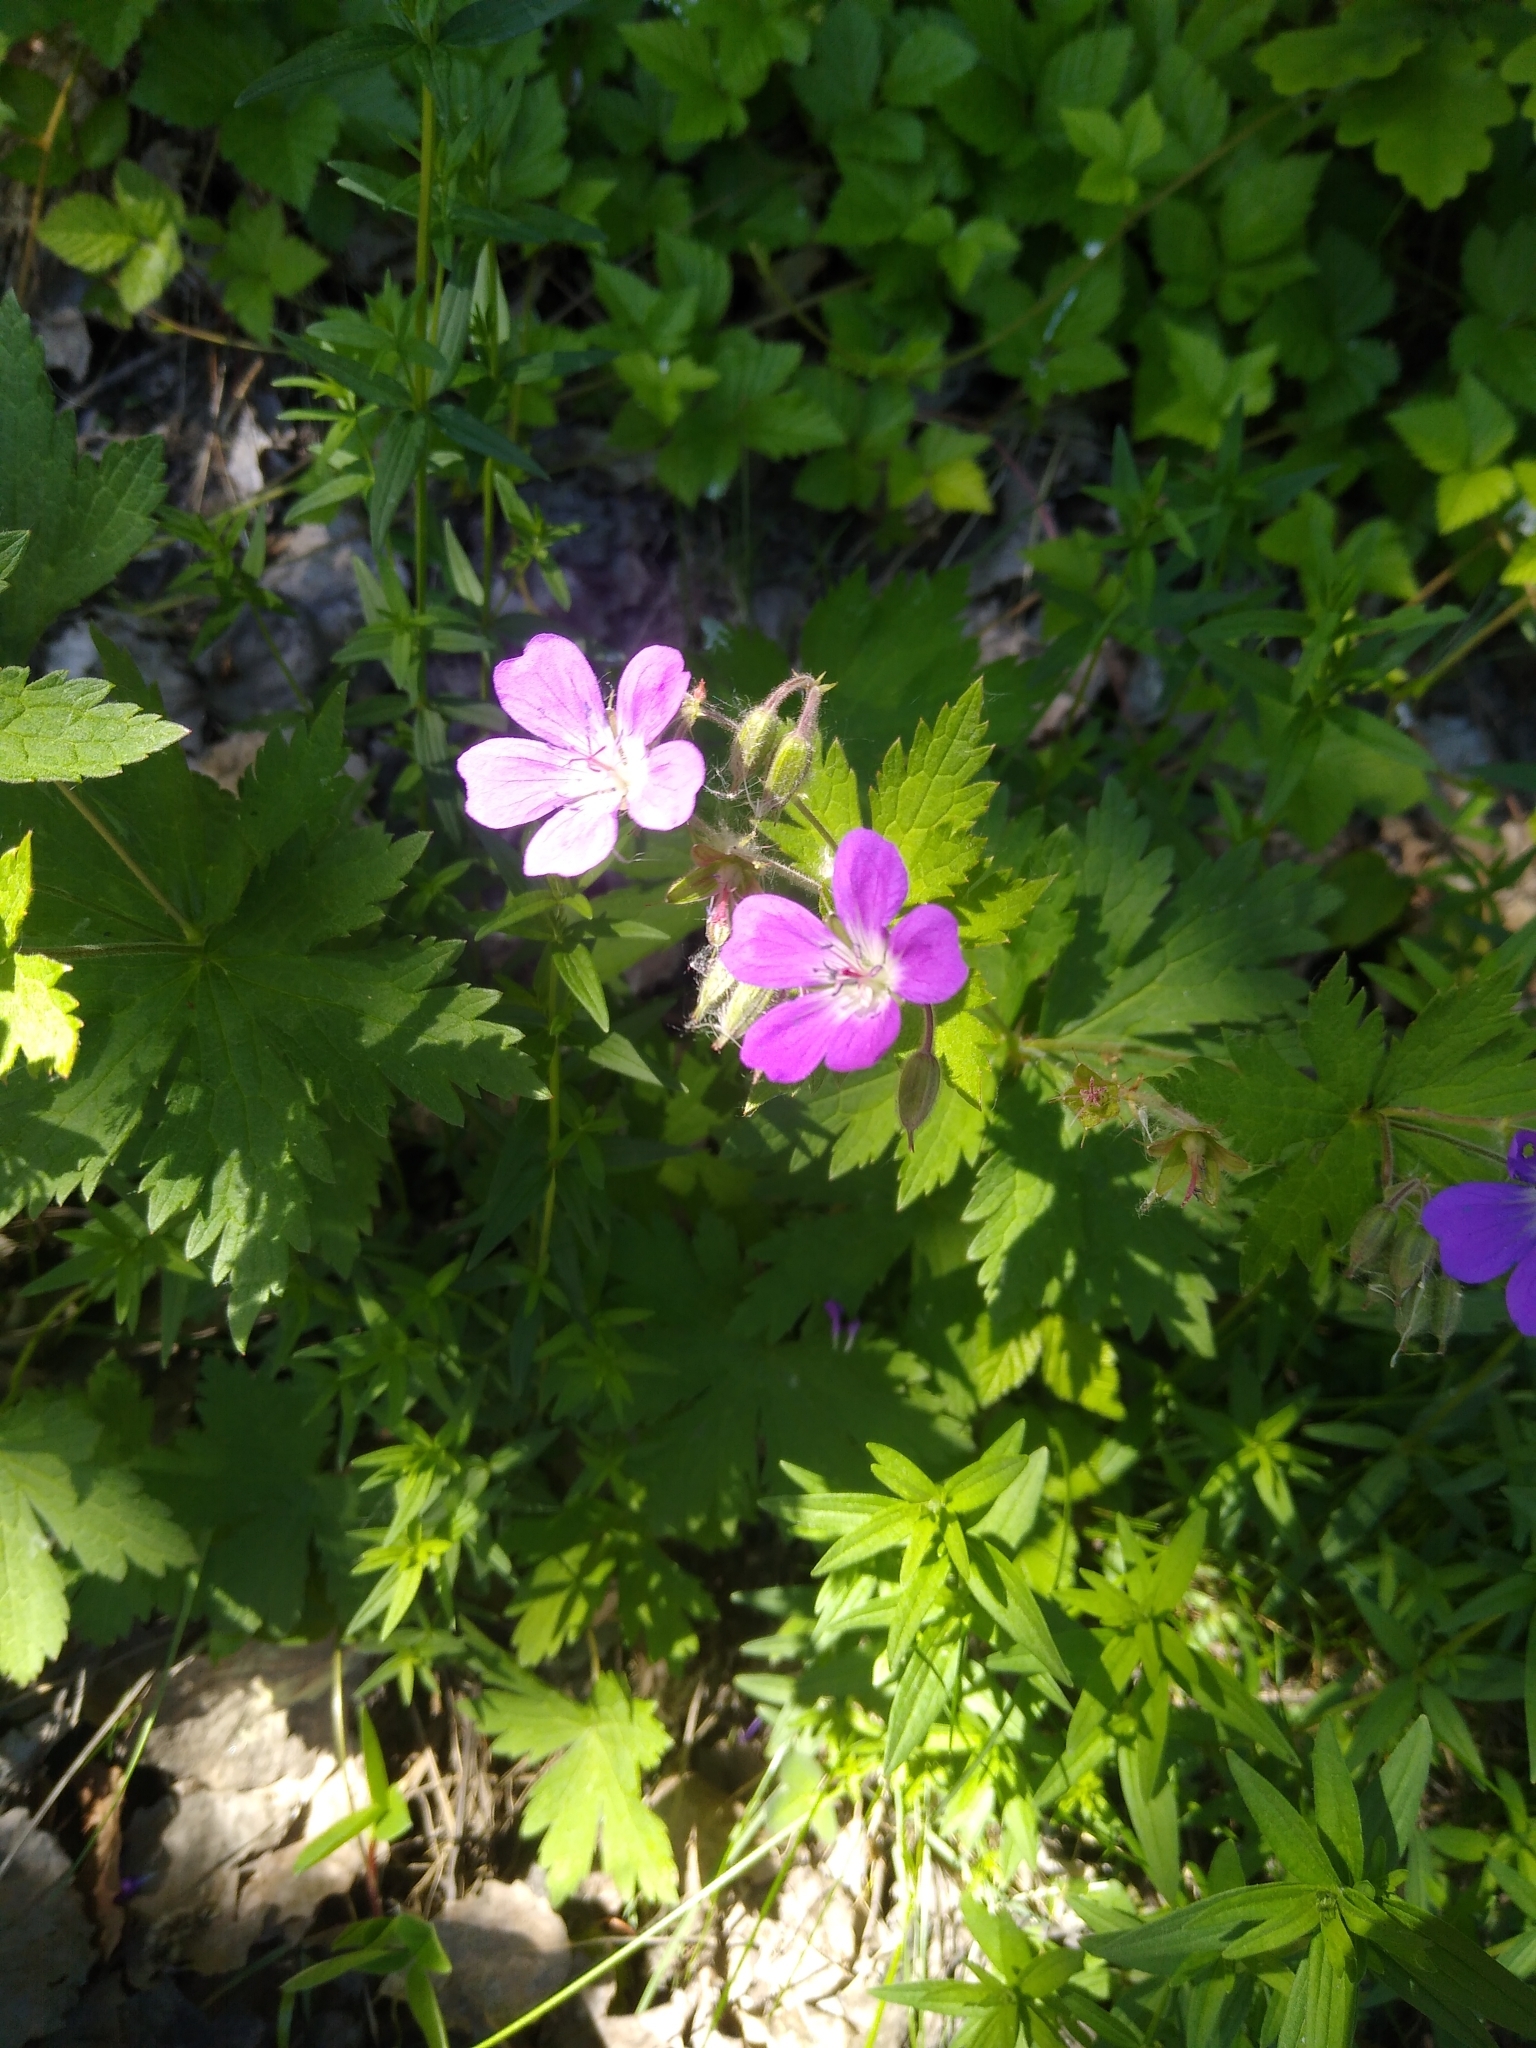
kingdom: Plantae
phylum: Tracheophyta
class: Magnoliopsida
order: Geraniales
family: Geraniaceae
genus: Geranium
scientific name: Geranium sylvaticum
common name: Wood crane's-bill
